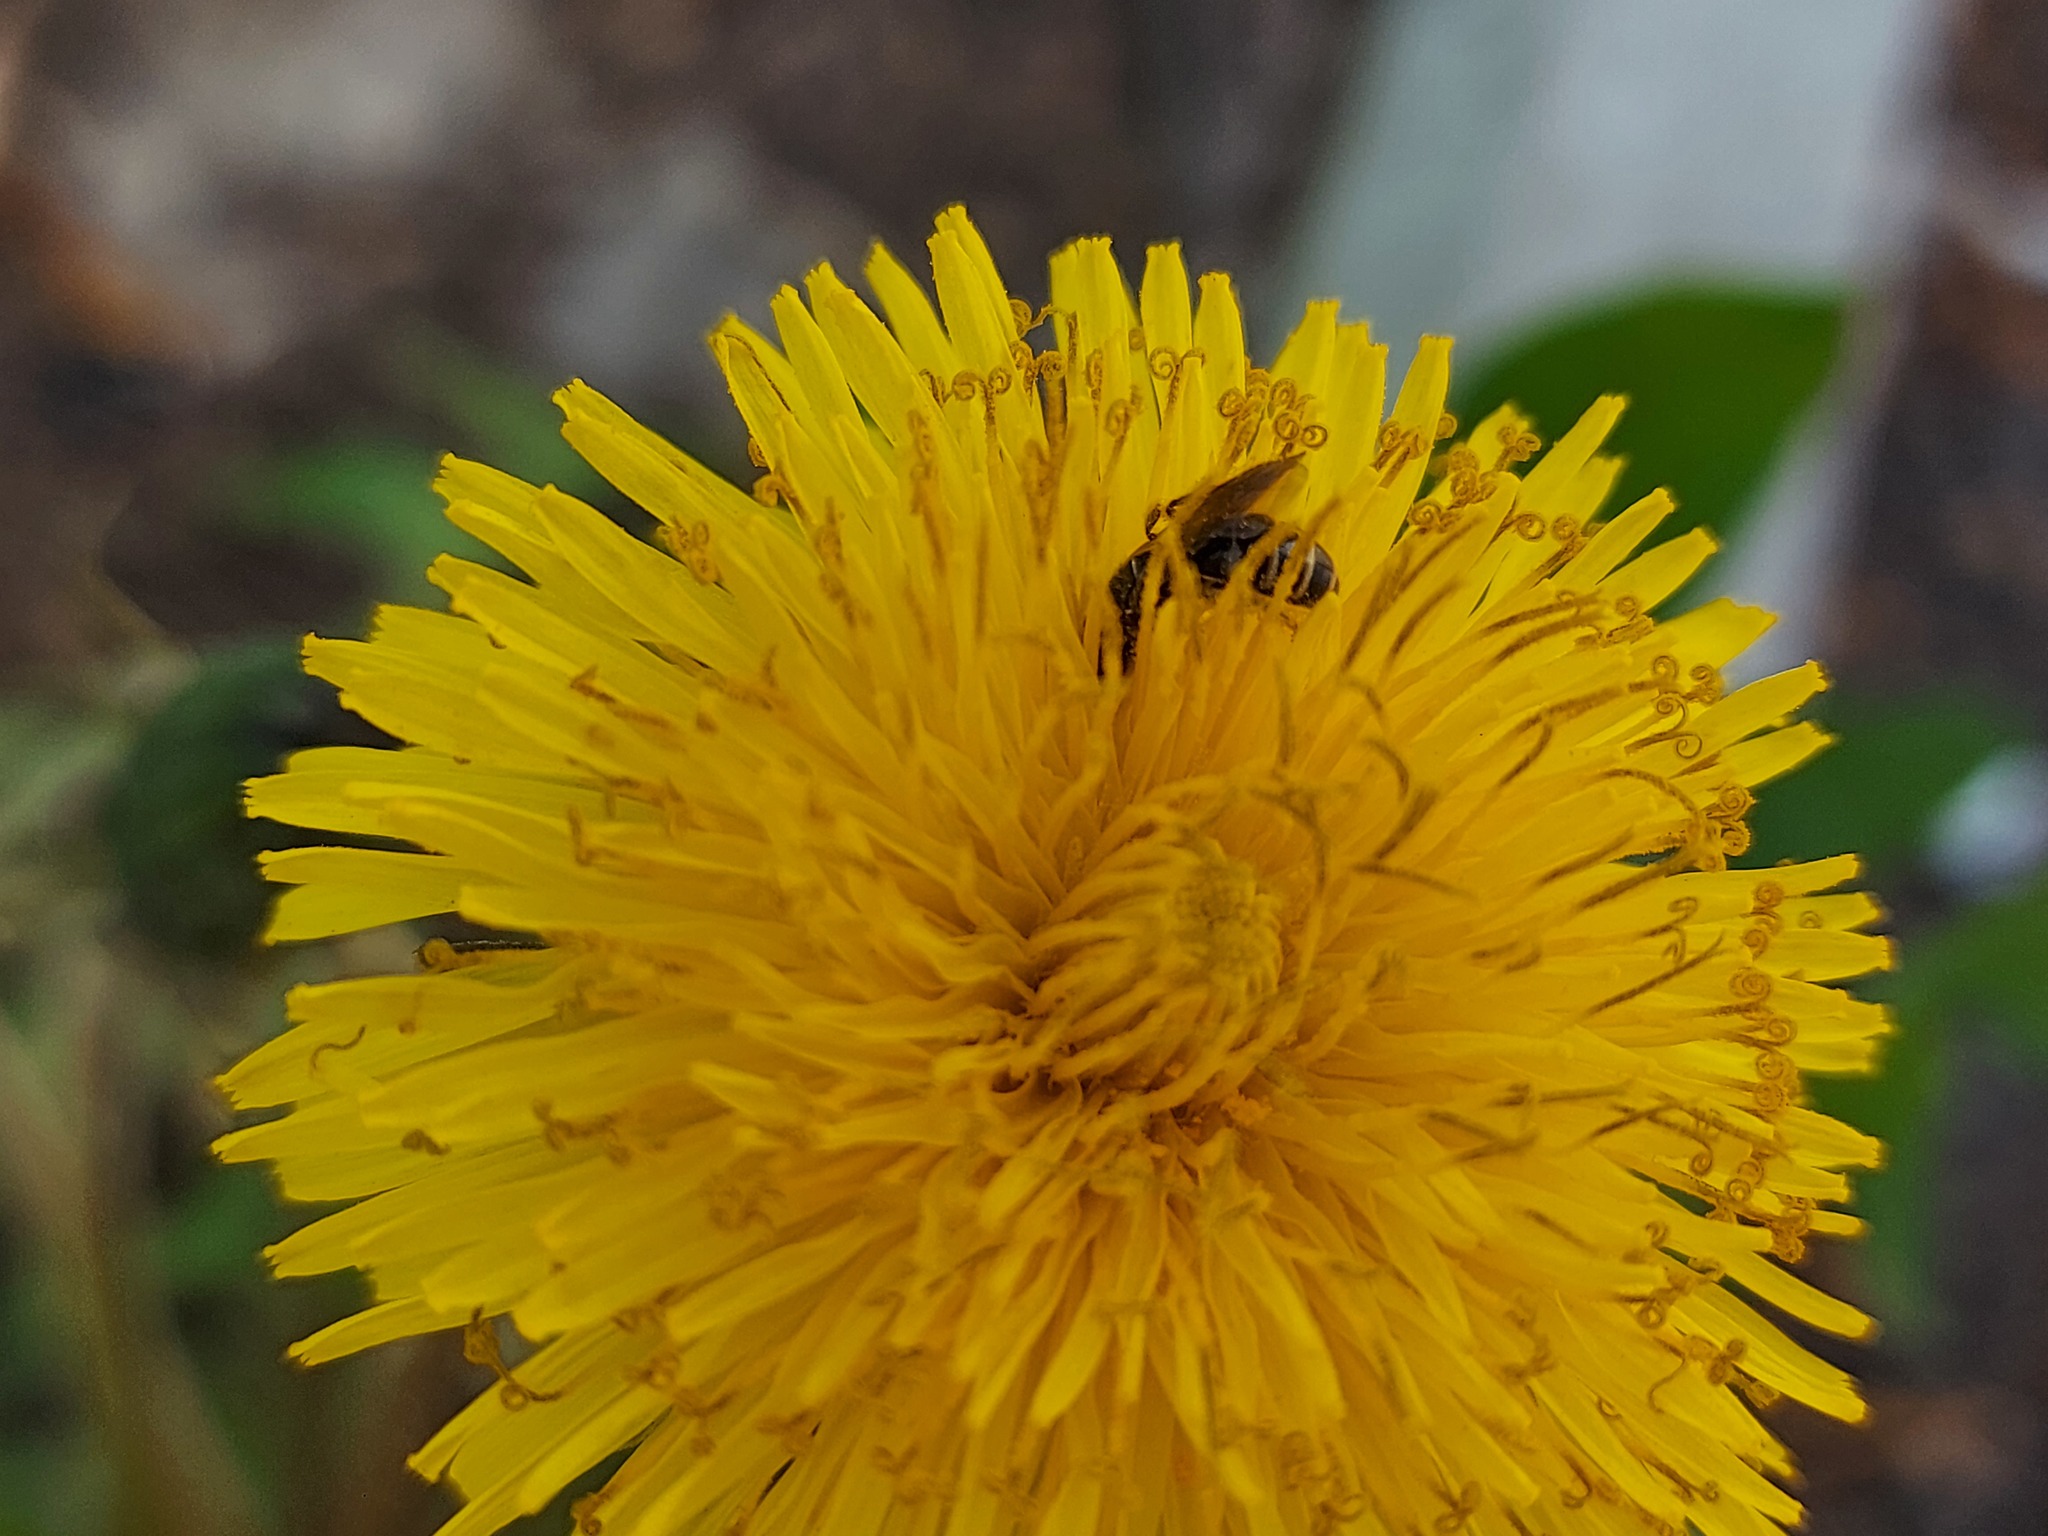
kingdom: Plantae
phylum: Tracheophyta
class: Magnoliopsida
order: Asterales
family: Asteraceae
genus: Taraxacum
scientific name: Taraxacum officinale
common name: Common dandelion
